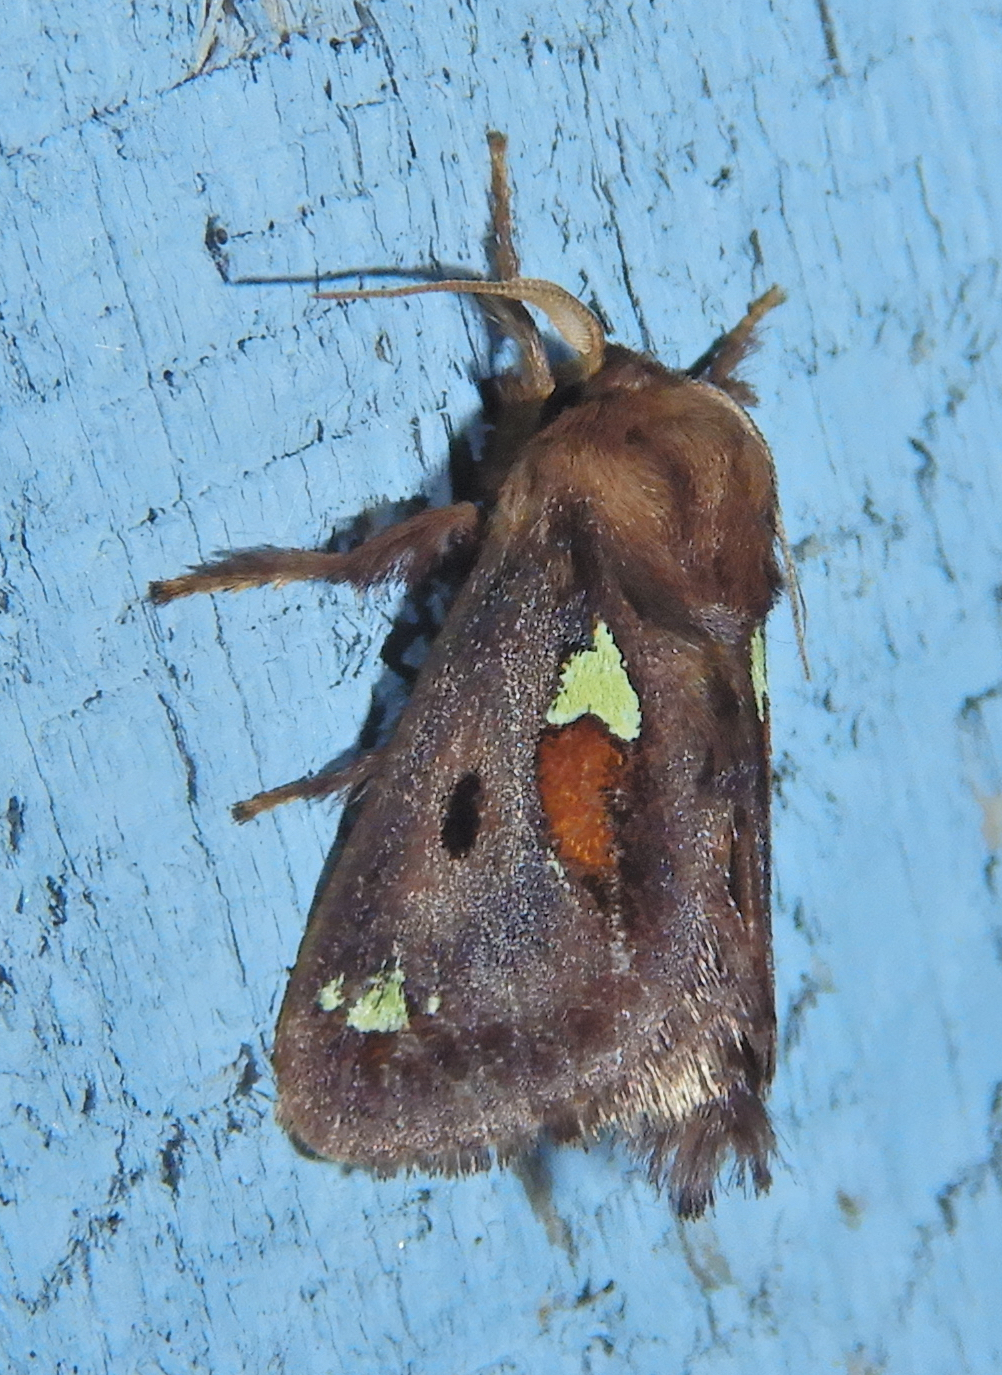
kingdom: Animalia
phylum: Arthropoda
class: Insecta
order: Lepidoptera
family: Limacodidae
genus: Euclea
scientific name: Euclea delphinii
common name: Spiny oak-slug moth
